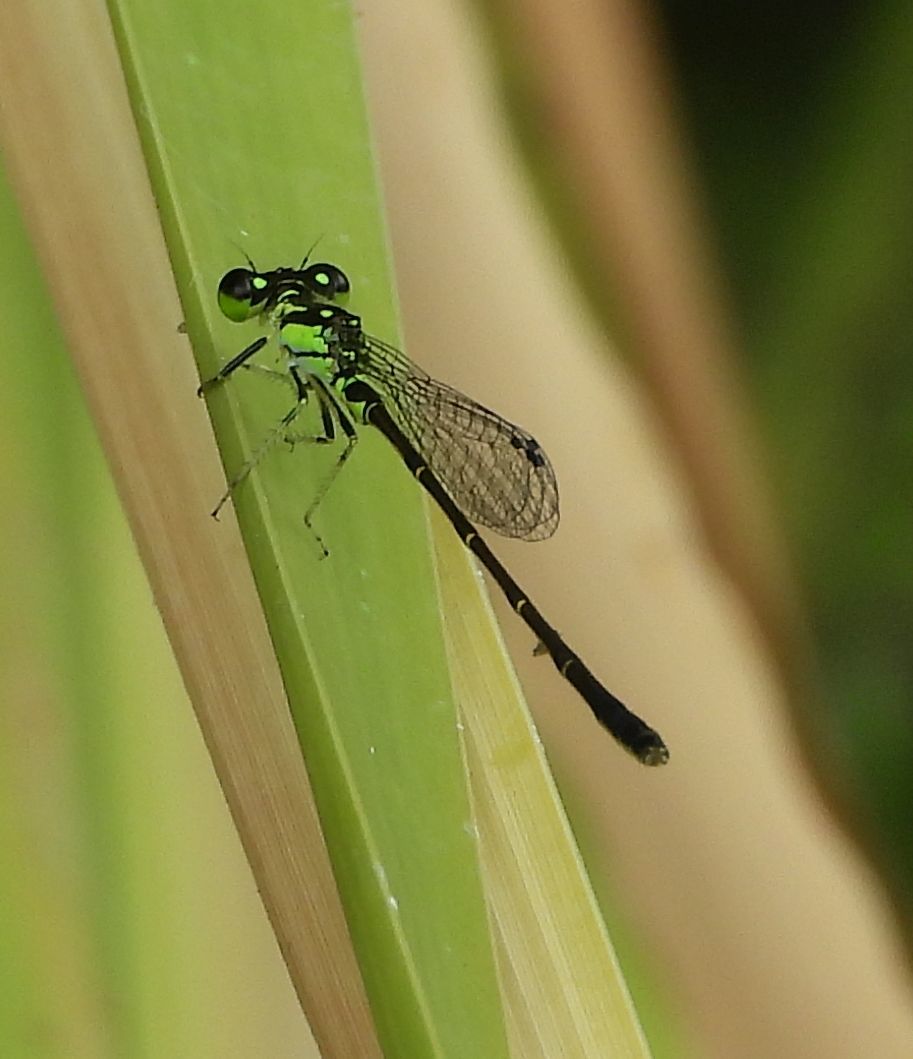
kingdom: Animalia
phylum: Arthropoda
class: Insecta
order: Odonata
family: Coenagrionidae
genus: Ischnura
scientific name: Ischnura posita
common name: Fragile forktail
